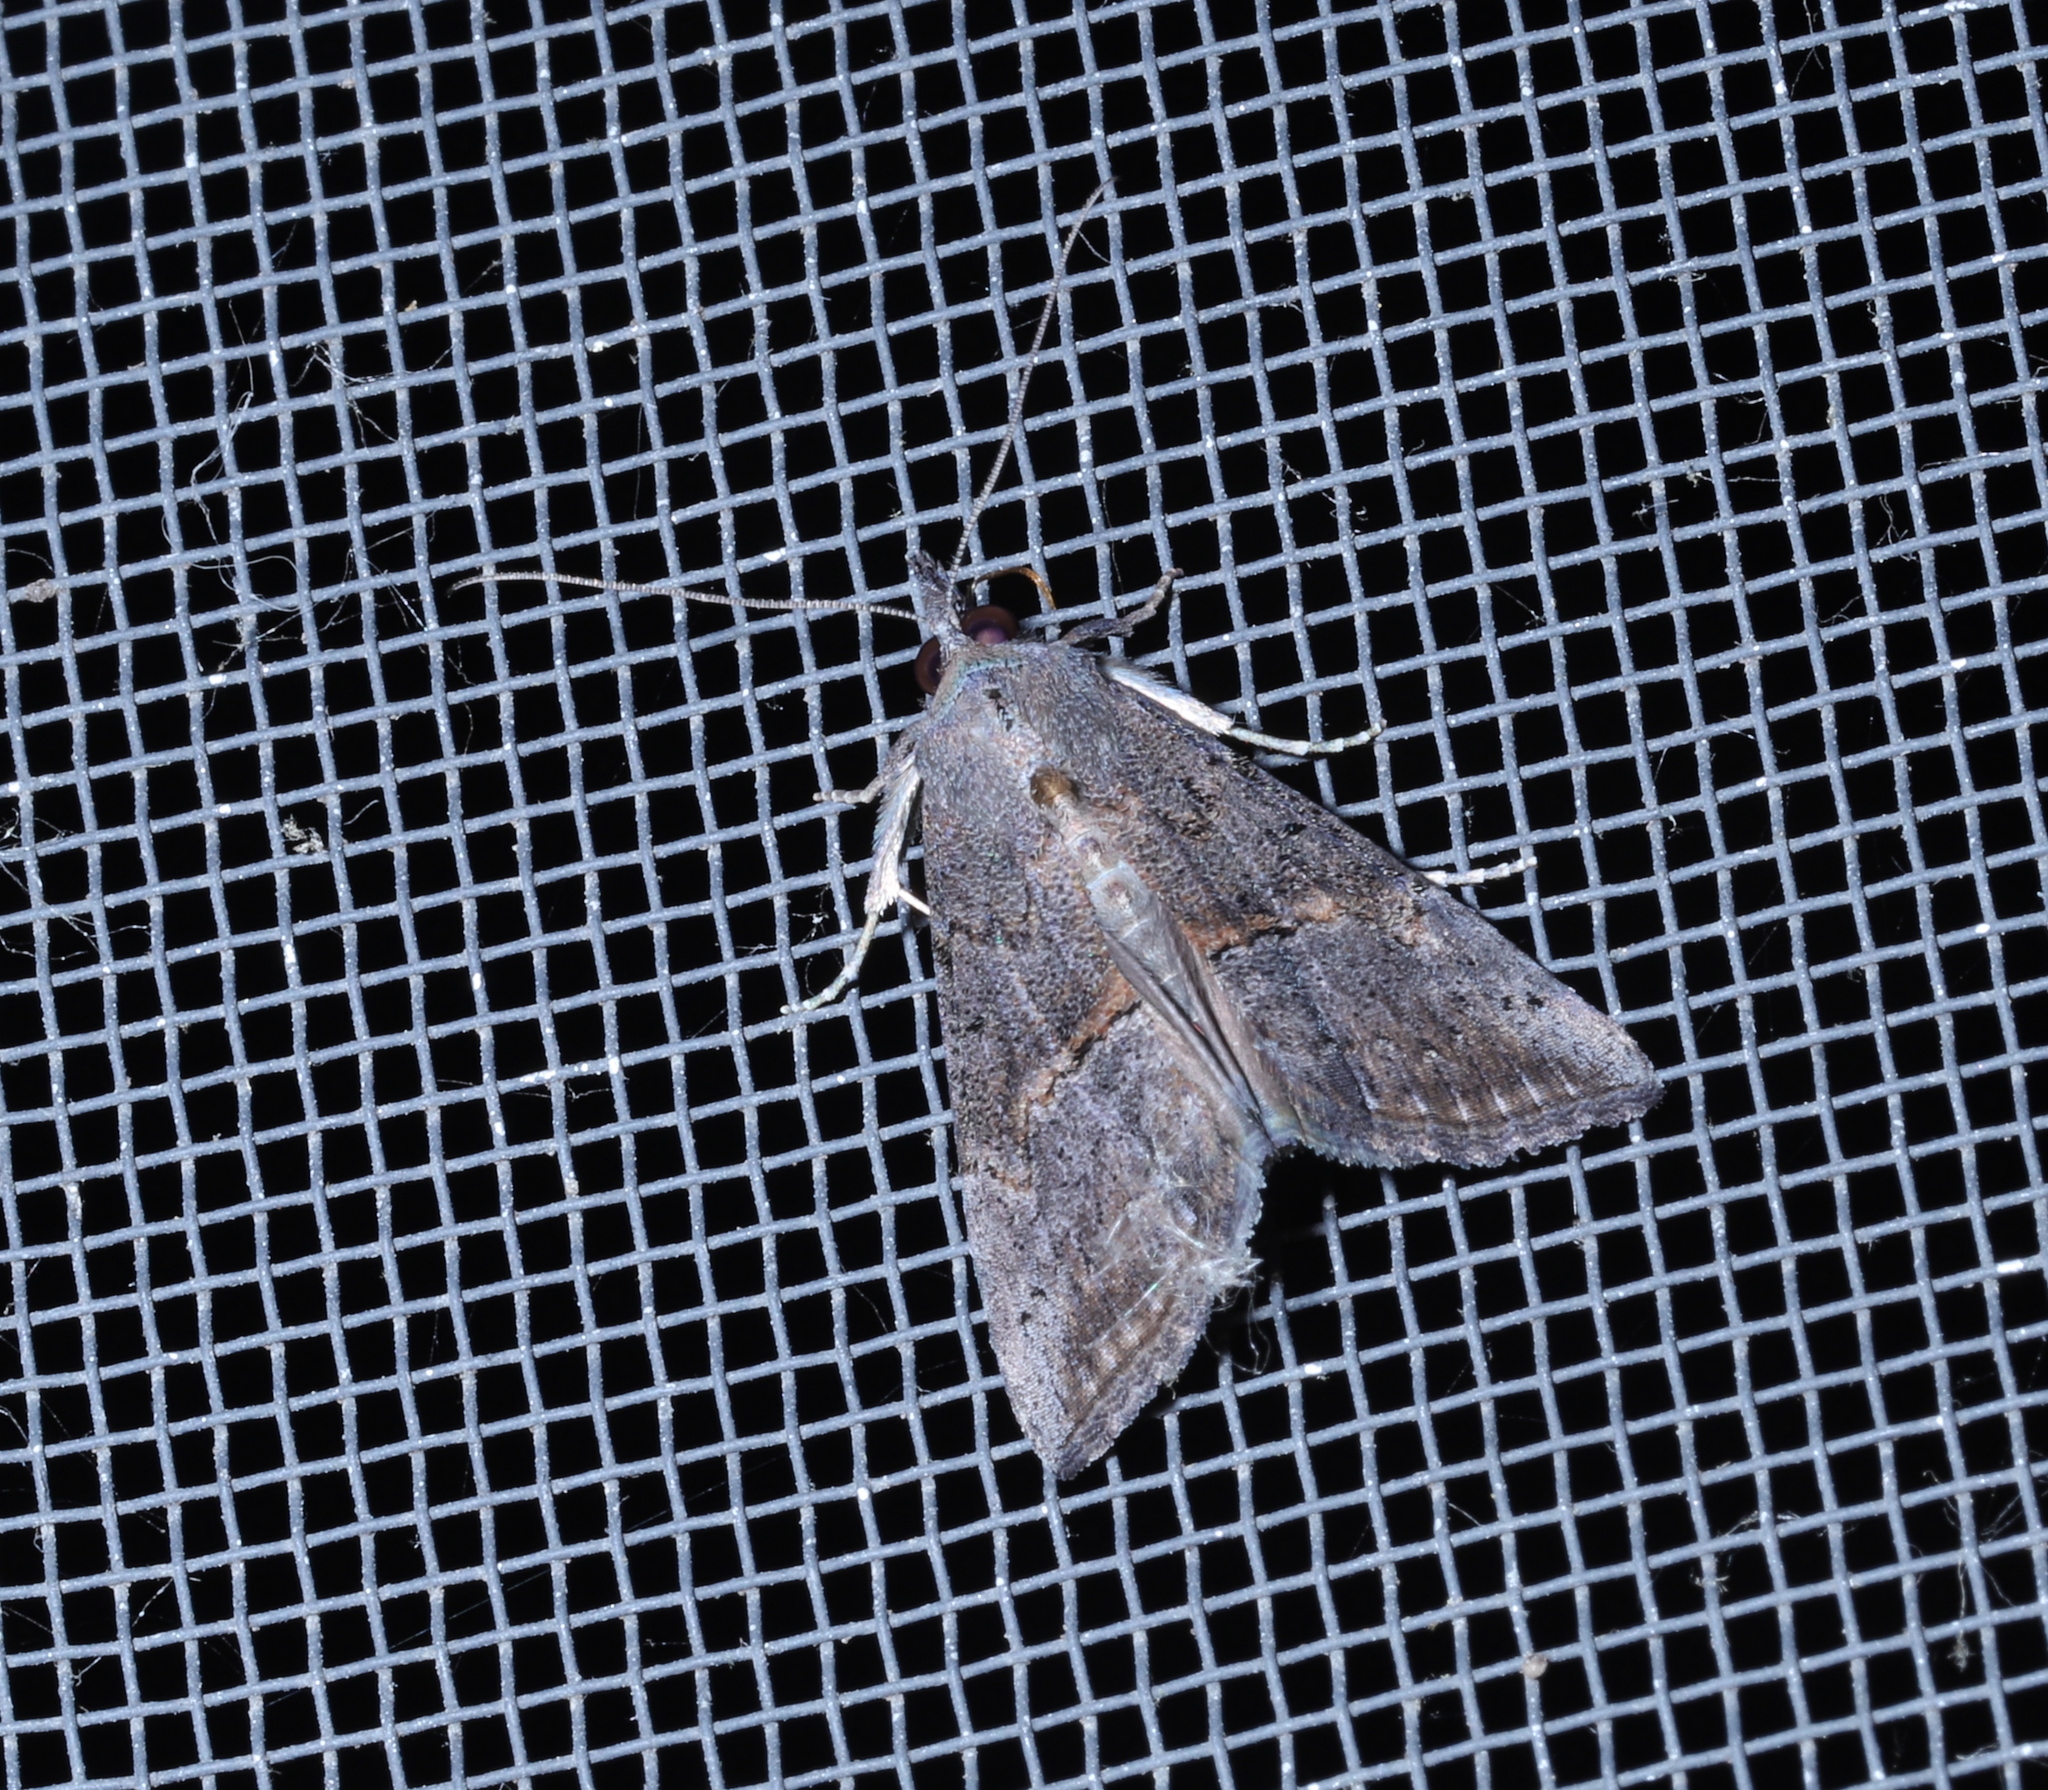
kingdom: Animalia
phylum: Arthropoda
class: Insecta
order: Lepidoptera
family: Erebidae
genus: Hypena
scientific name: Hypena scabra
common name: Green cloverworm
